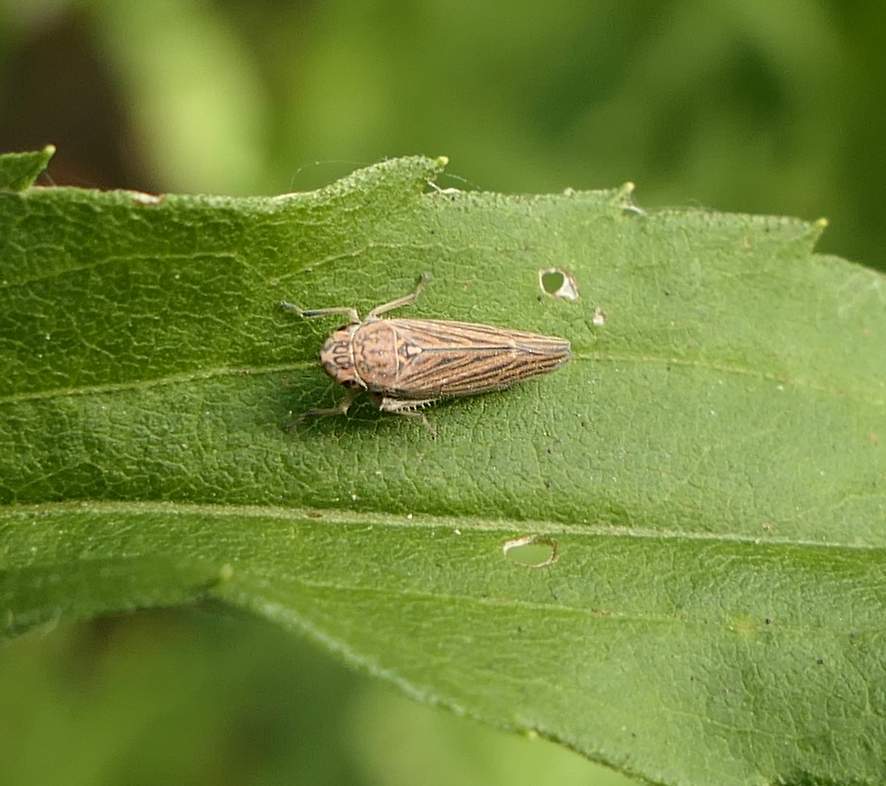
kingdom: Animalia
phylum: Arthropoda
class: Insecta
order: Hemiptera
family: Cicadellidae
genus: Neokolla
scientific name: Neokolla hieroglyphica
